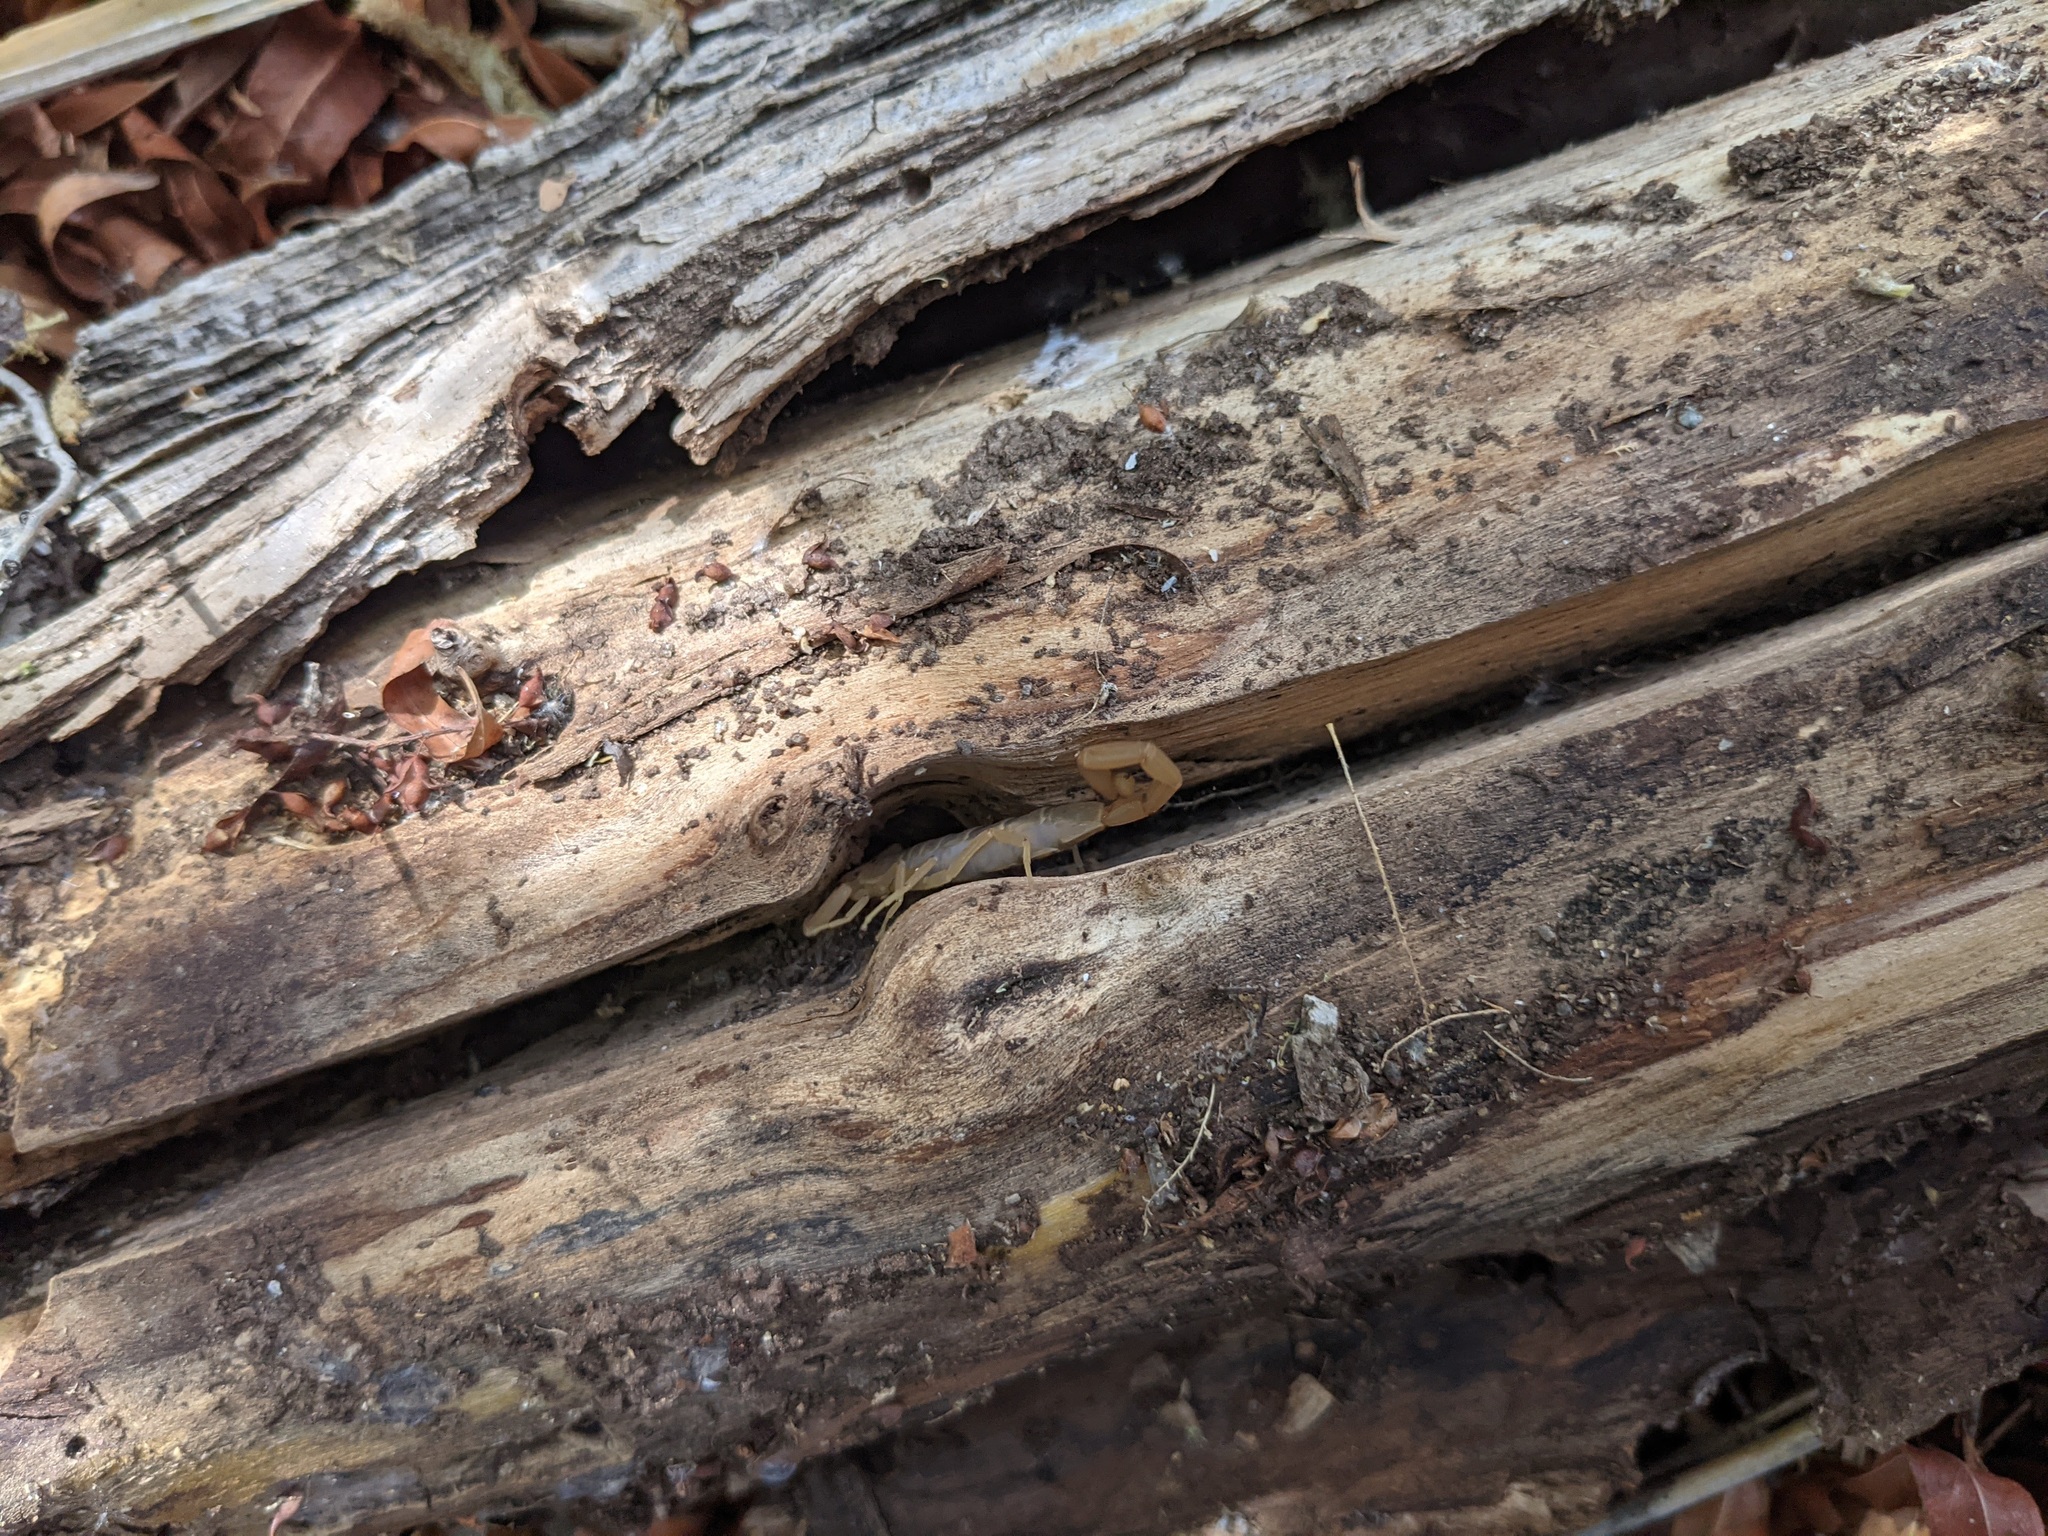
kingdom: Animalia
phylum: Arthropoda
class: Arachnida
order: Scorpiones
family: Buthidae
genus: Centruroides
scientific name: Centruroides sculpturatus
